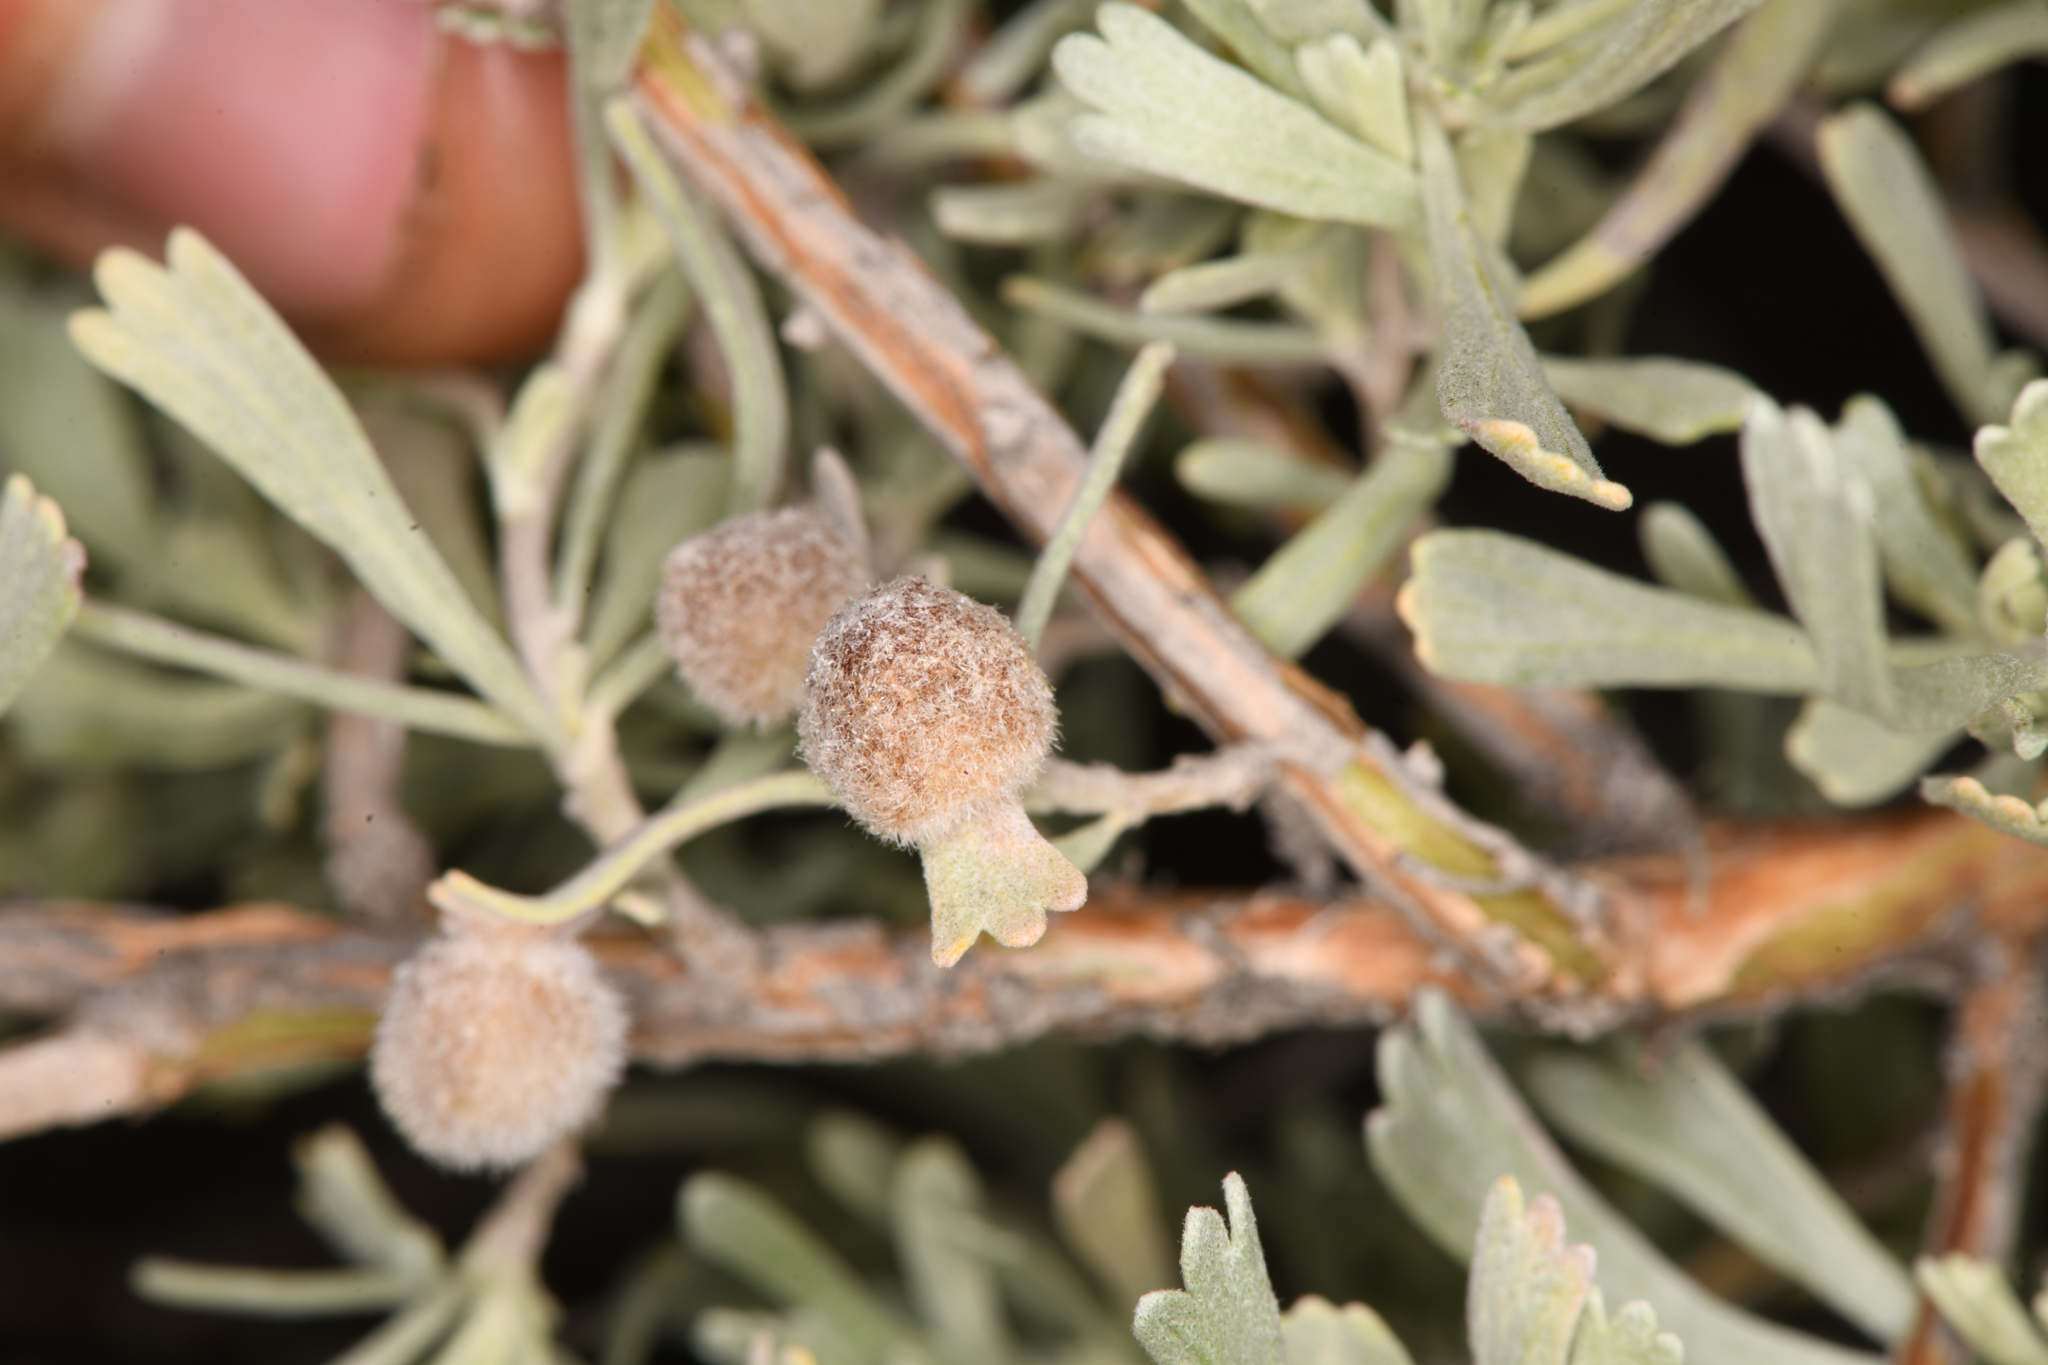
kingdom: Animalia
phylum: Arthropoda
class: Insecta
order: Diptera
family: Cecidomyiidae
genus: Rhopalomyia
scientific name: Rhopalomyia hirtipomum
